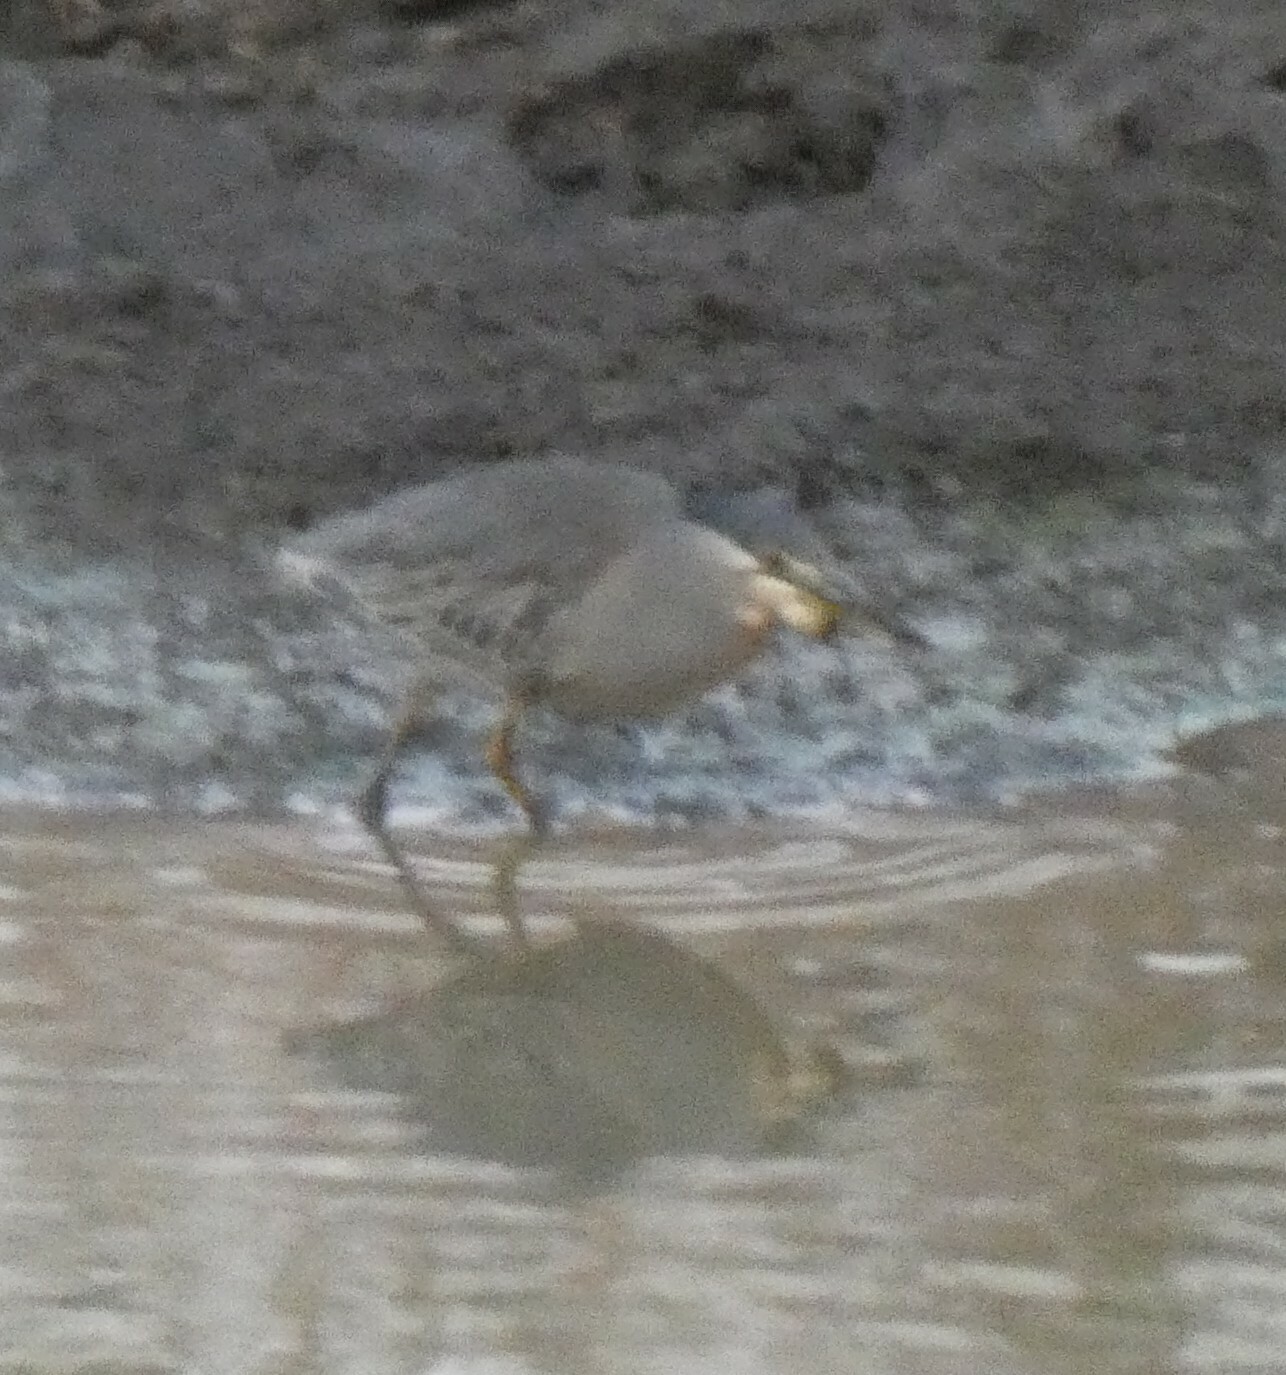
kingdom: Animalia
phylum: Chordata
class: Aves
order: Pelecaniformes
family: Ardeidae
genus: Butorides
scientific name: Butorides striata
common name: Striated heron
